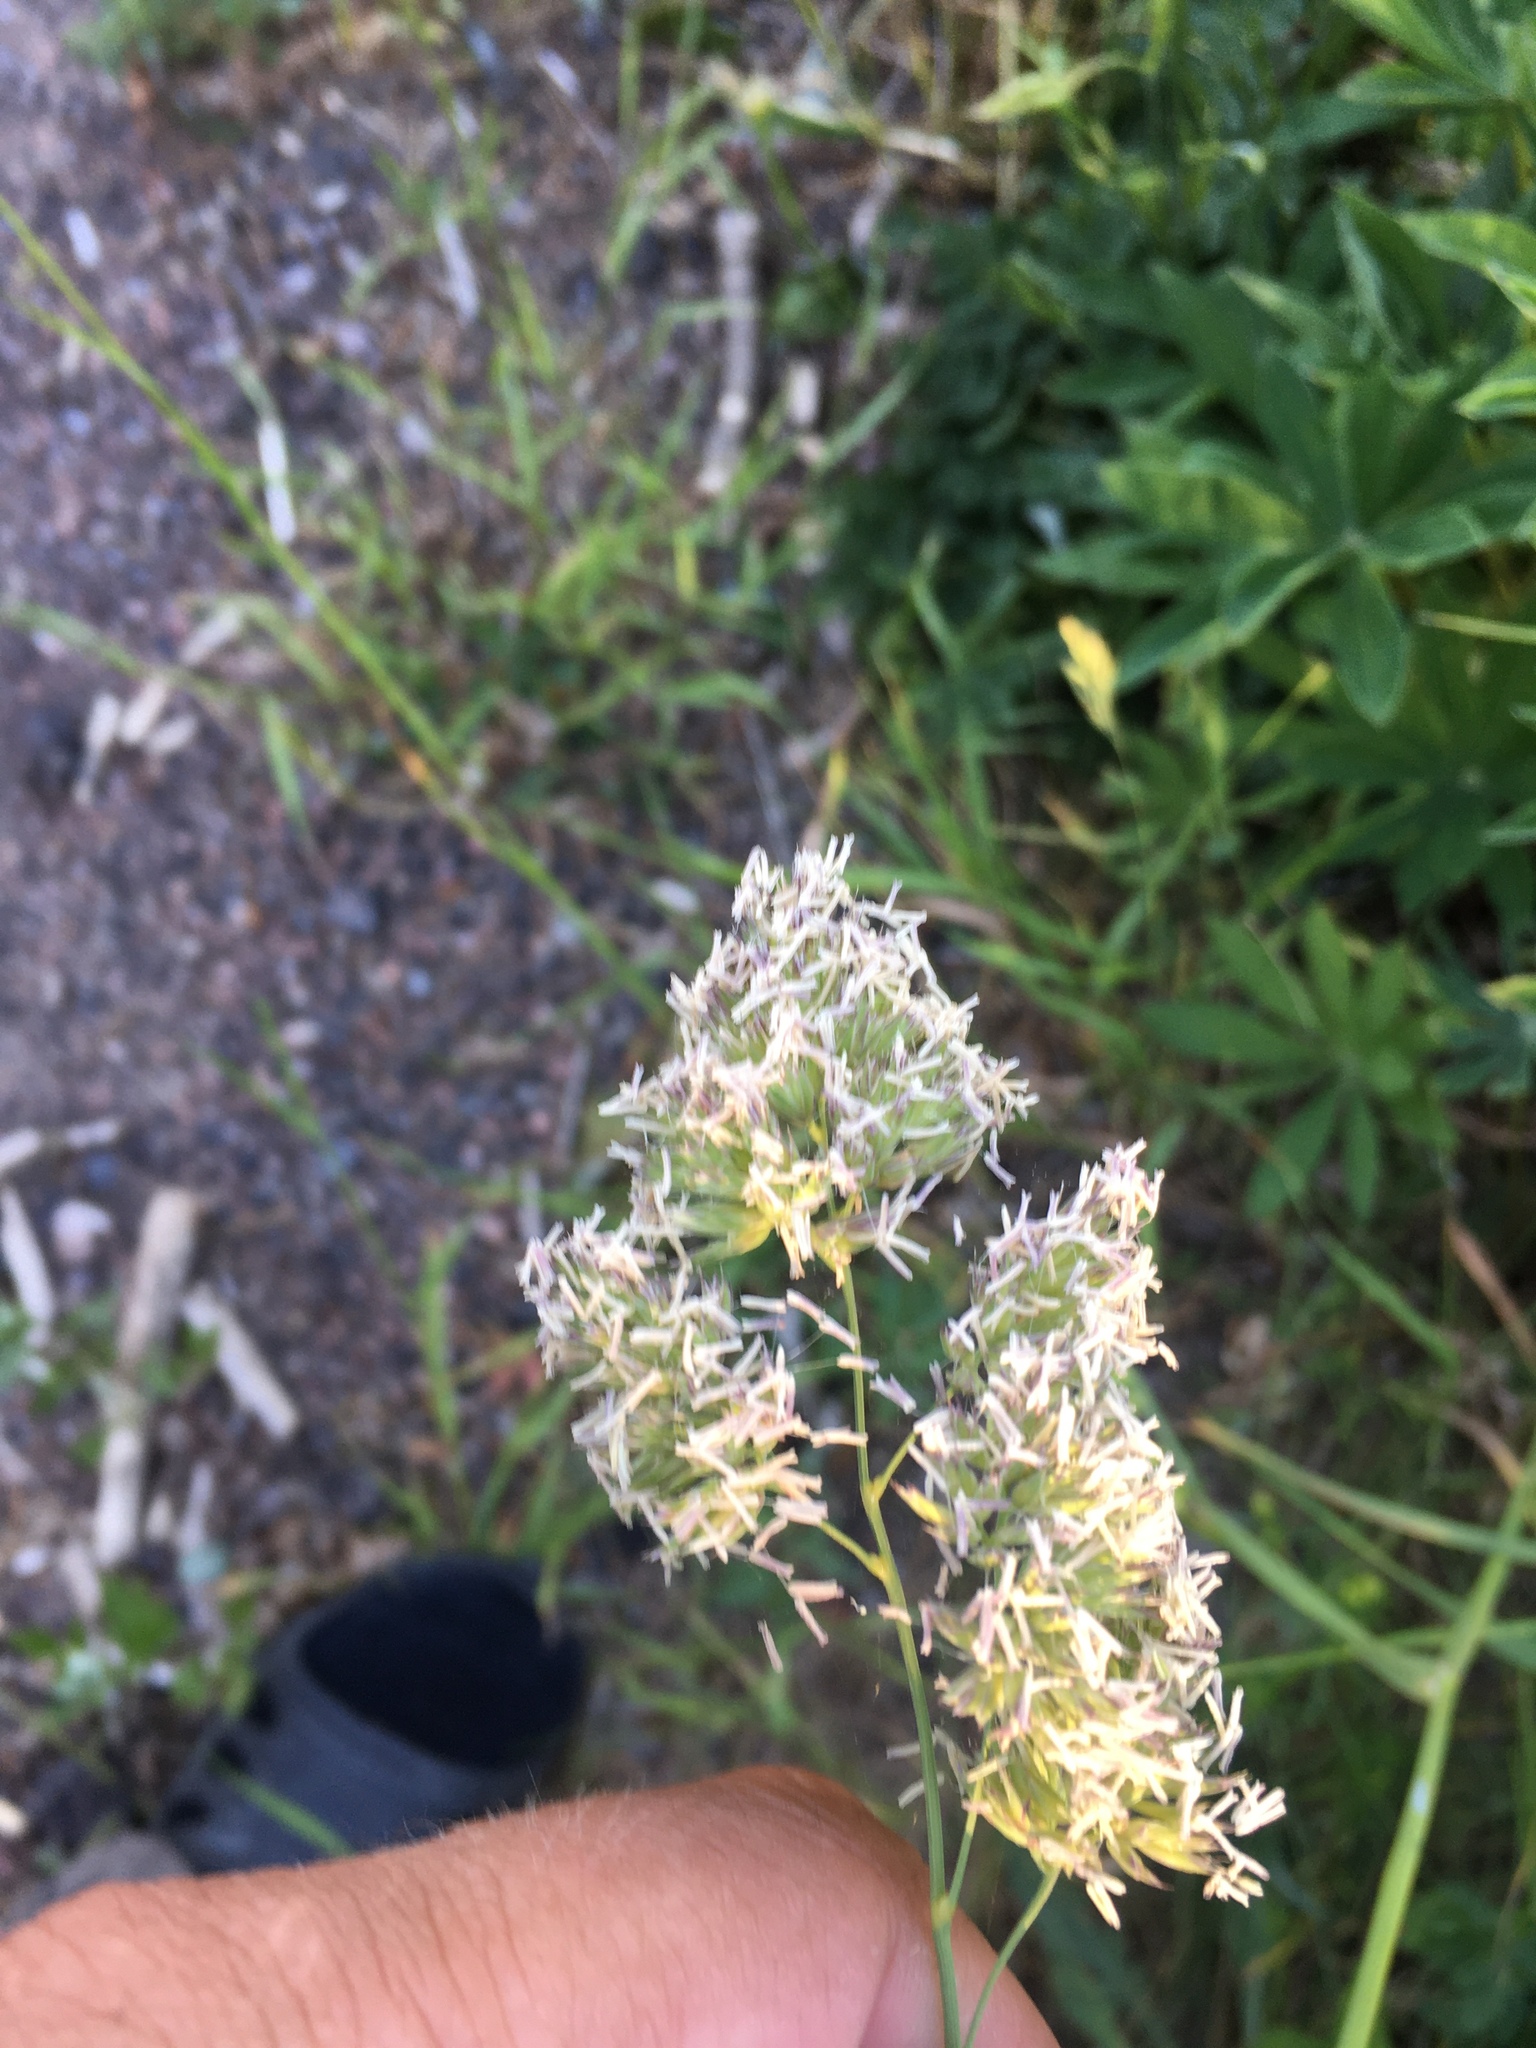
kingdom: Plantae
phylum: Tracheophyta
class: Liliopsida
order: Poales
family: Poaceae
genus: Dactylis
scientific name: Dactylis glomerata
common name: Orchardgrass
